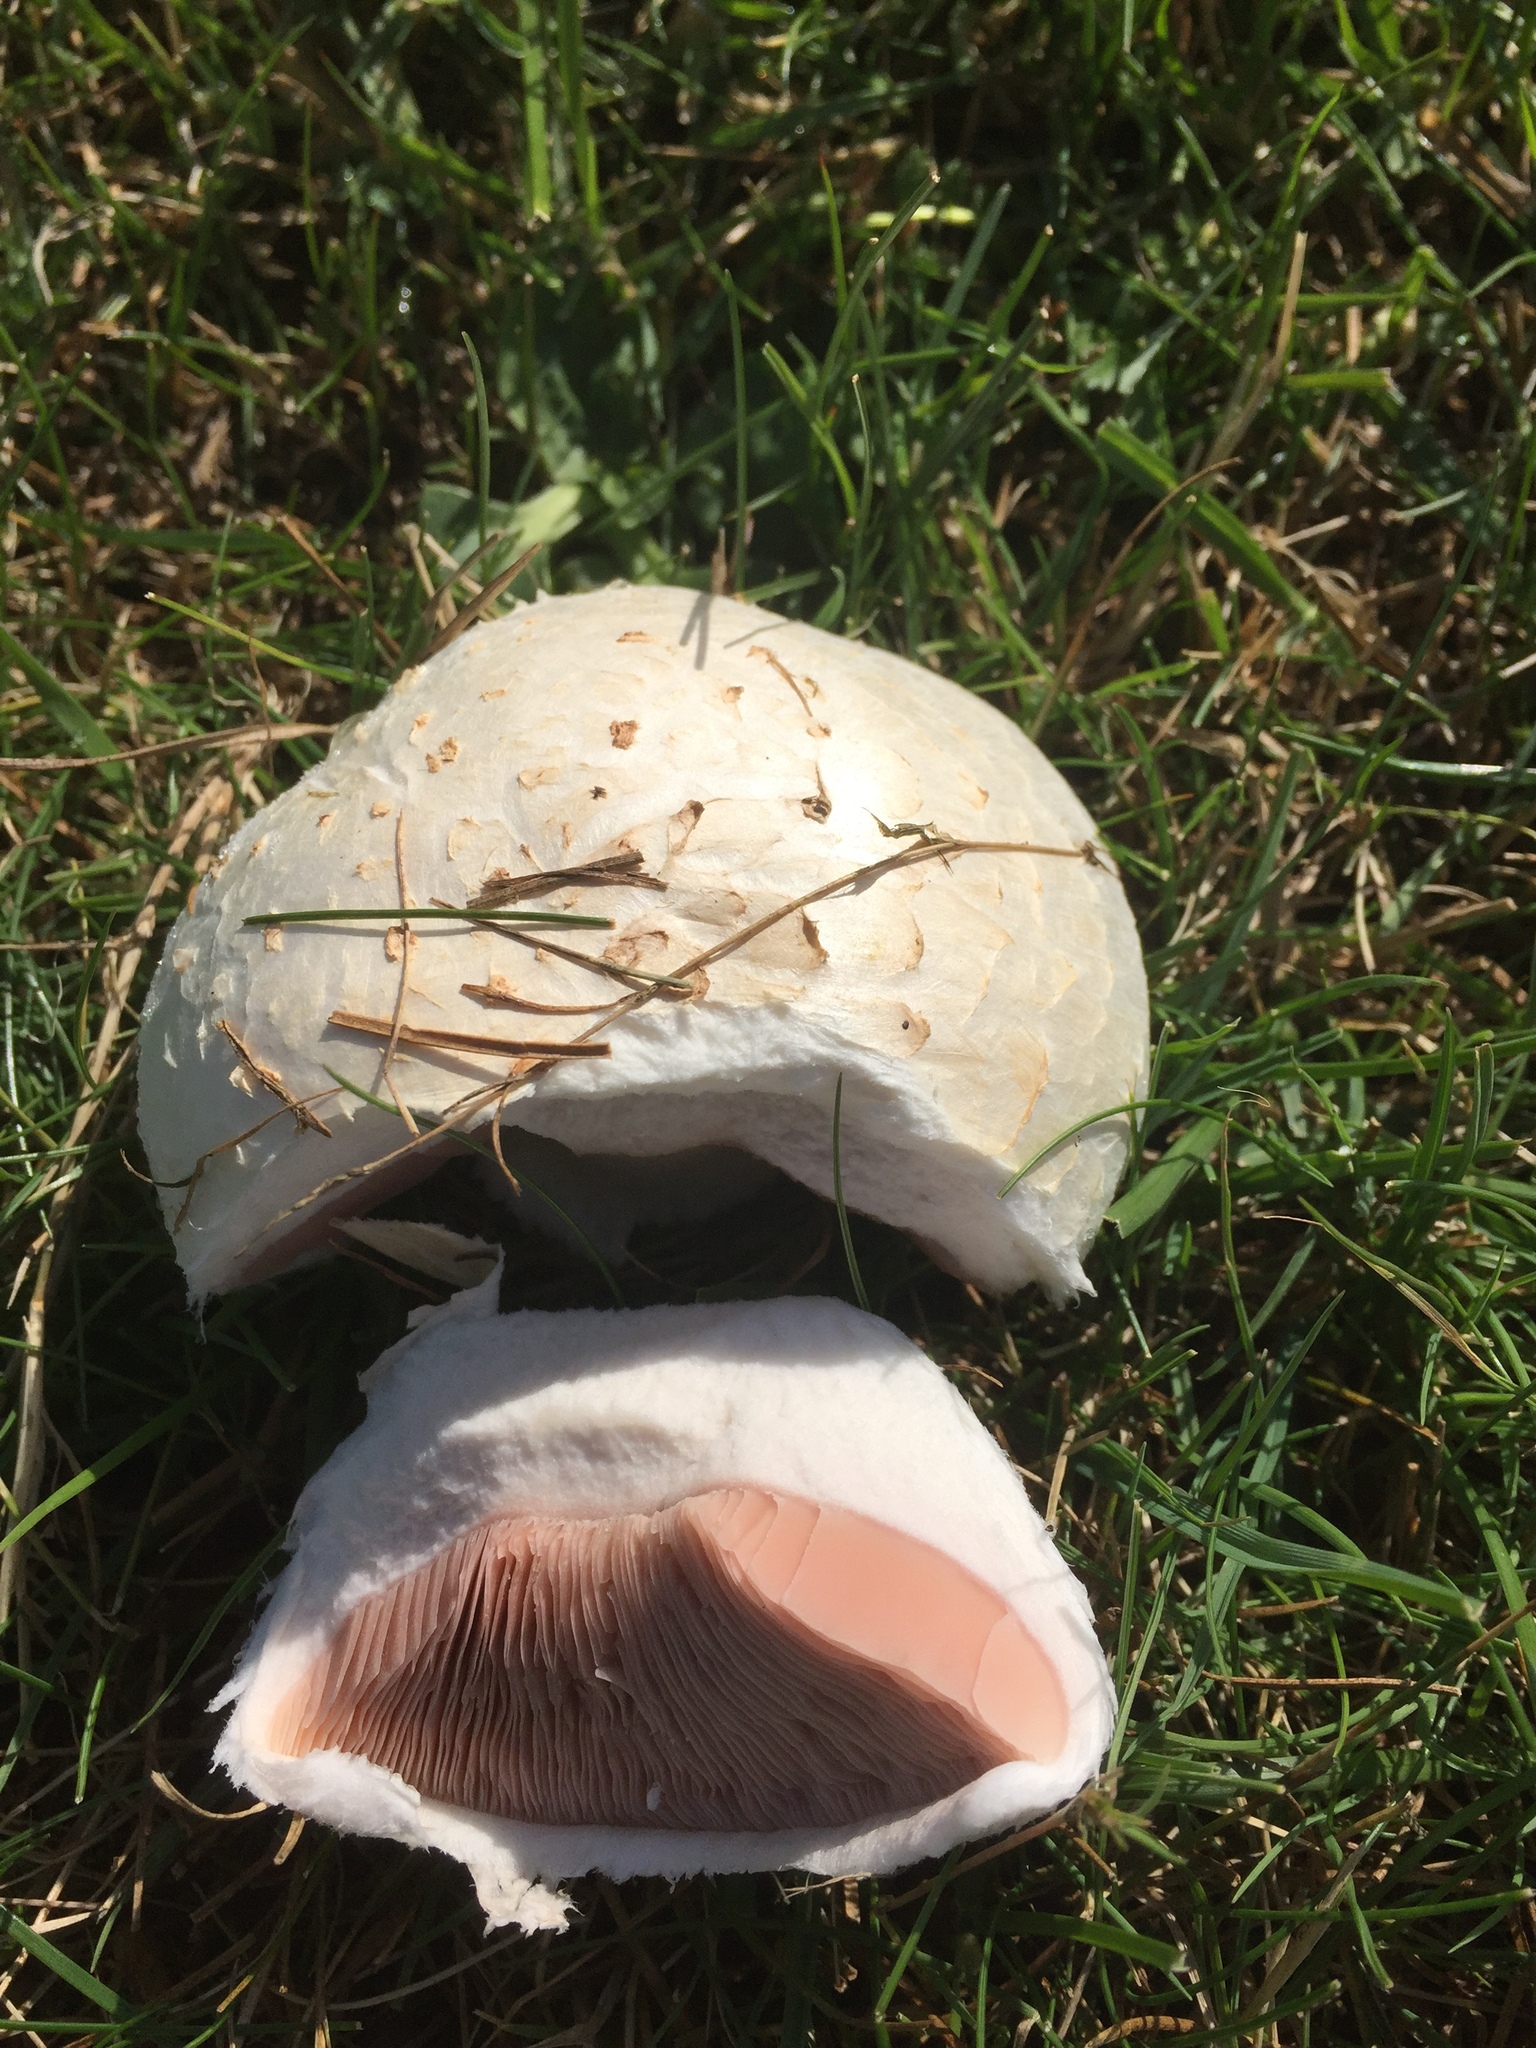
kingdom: Fungi
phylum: Basidiomycota
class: Agaricomycetes
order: Agaricales
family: Agaricaceae
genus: Agaricus
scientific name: Agaricus campestris
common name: Field mushroom
